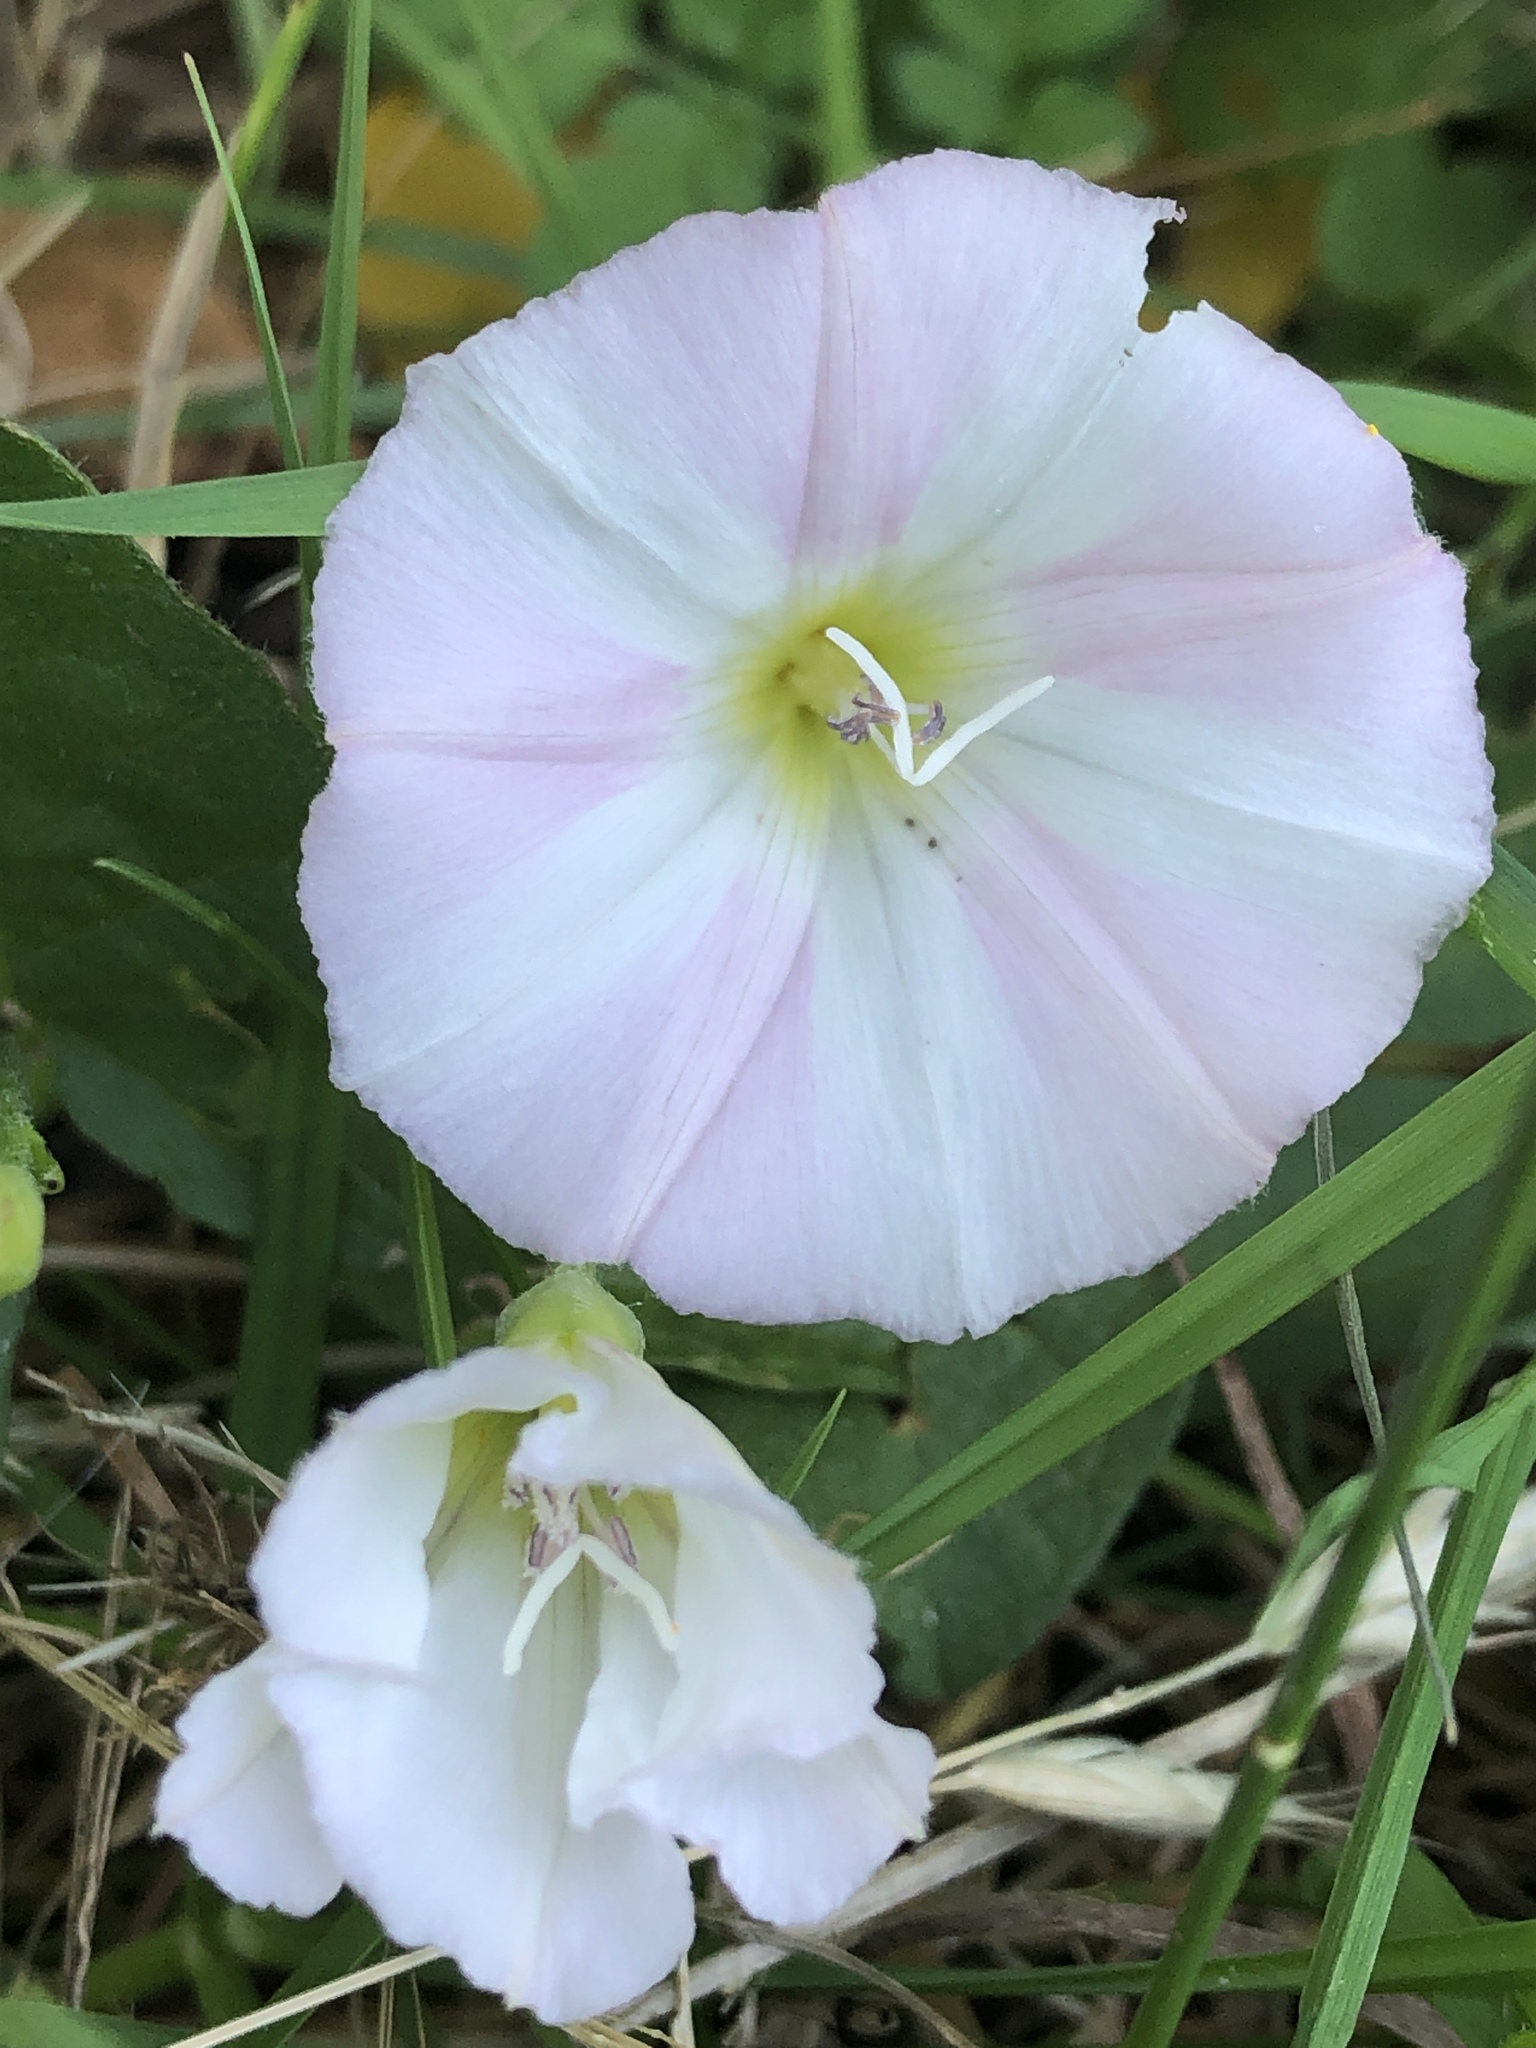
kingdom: Plantae
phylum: Tracheophyta
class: Magnoliopsida
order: Solanales
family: Convolvulaceae
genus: Convolvulus
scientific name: Convolvulus arvensis
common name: Field bindweed
